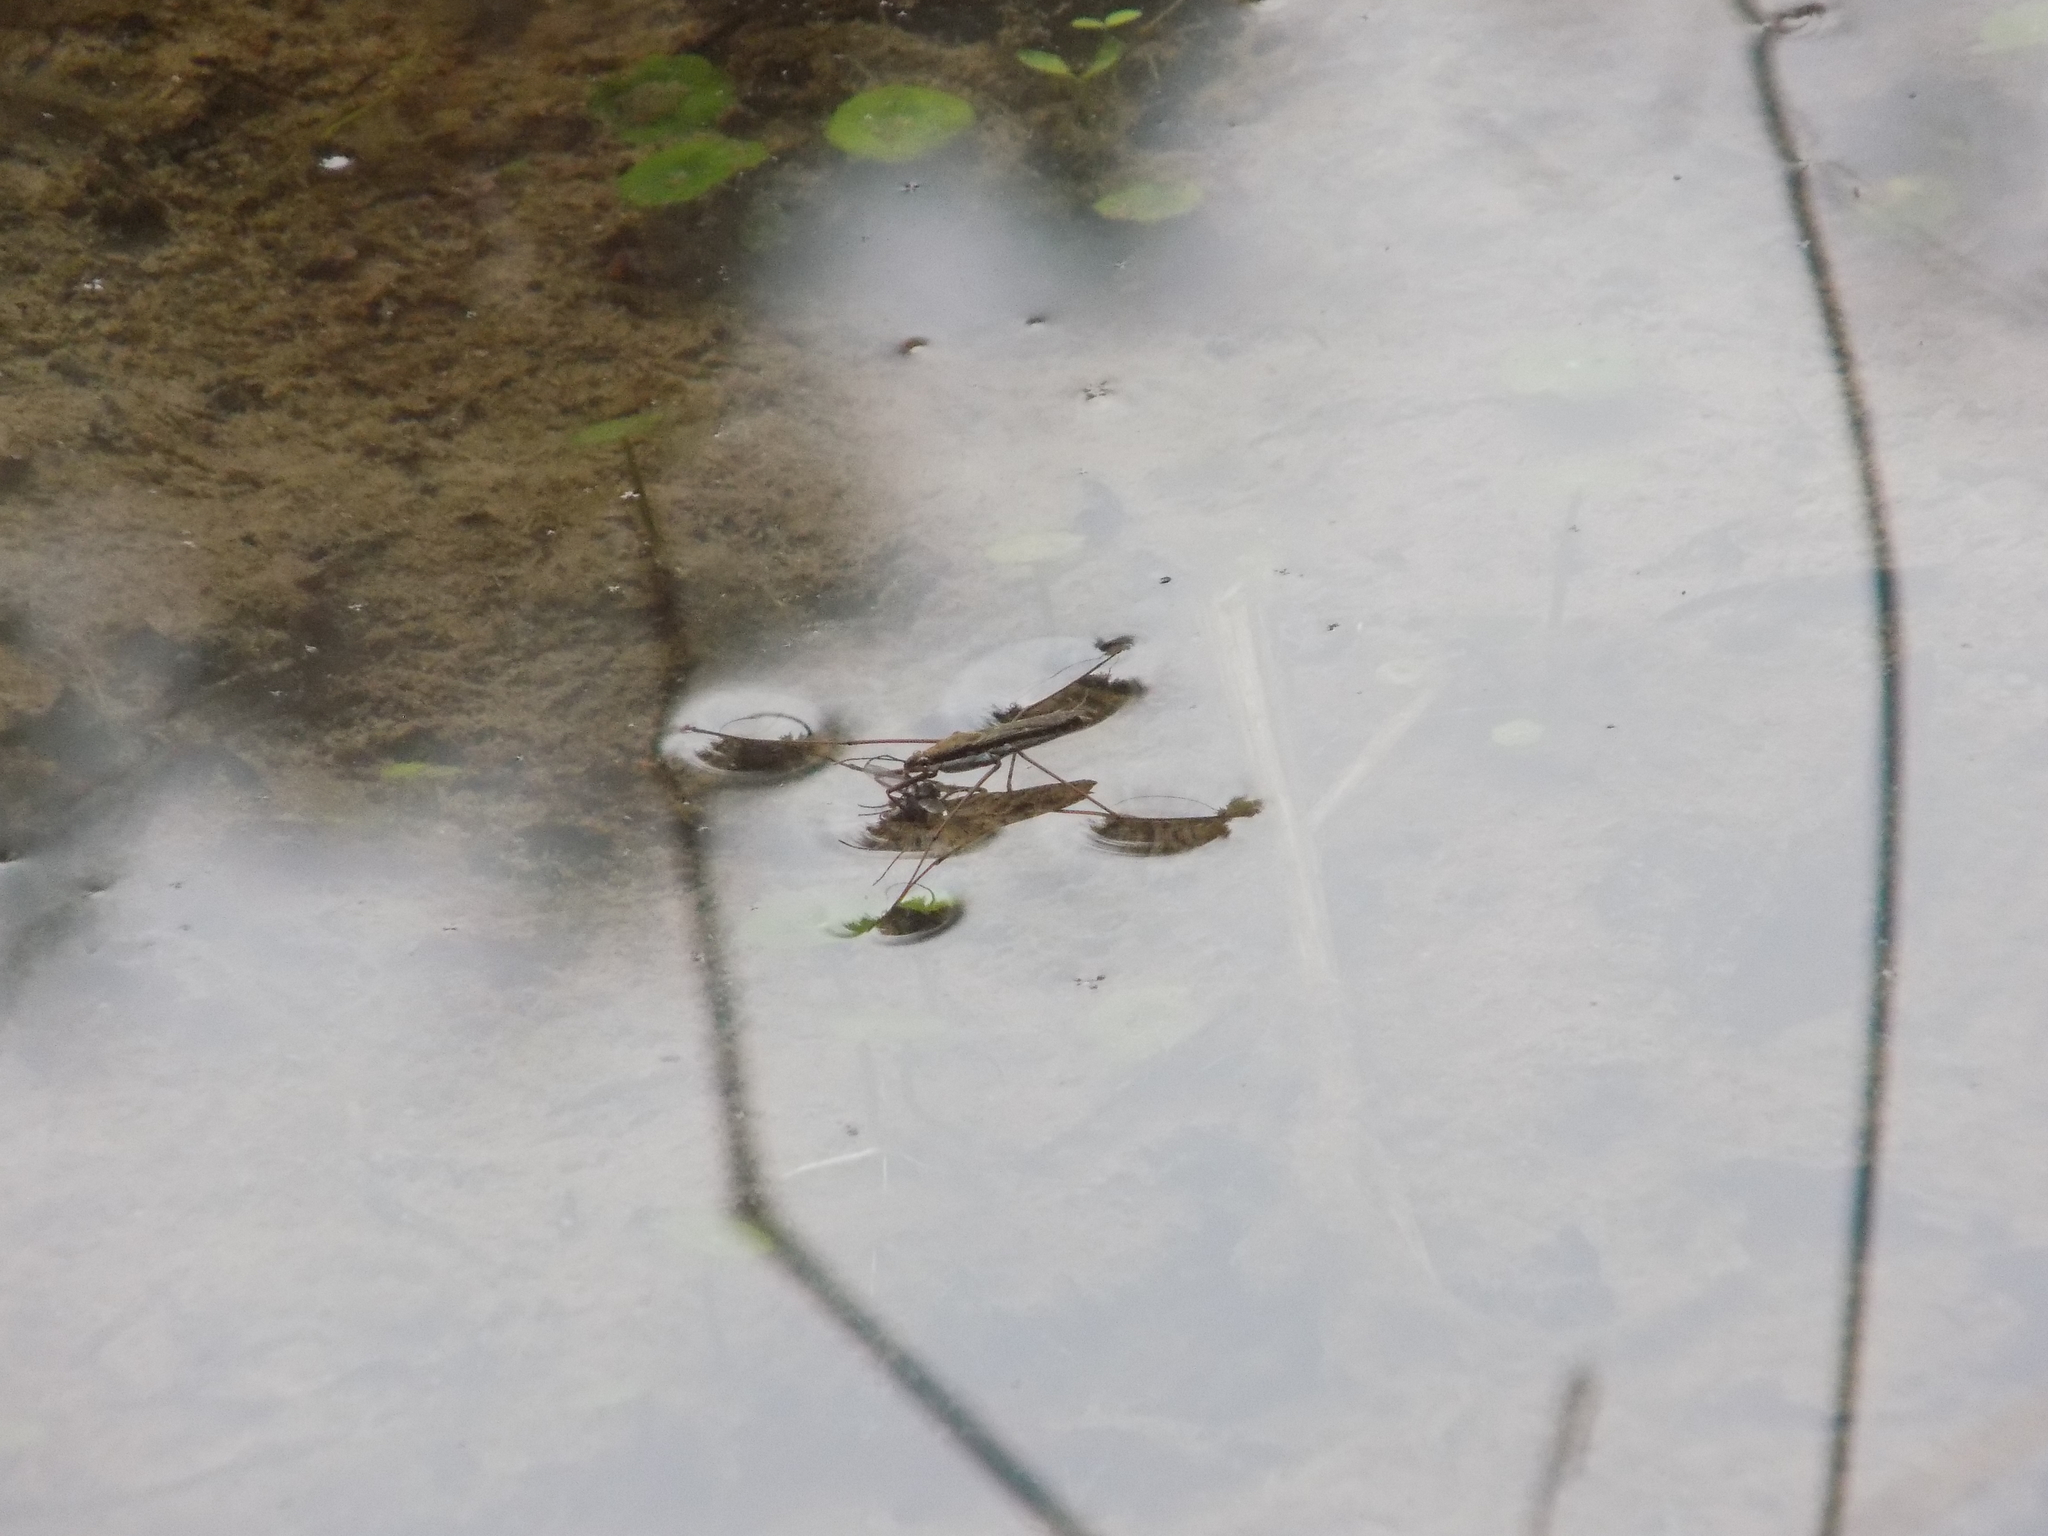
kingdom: Animalia
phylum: Arthropoda
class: Insecta
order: Hemiptera
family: Gerridae
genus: Aquarius
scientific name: Aquarius remigis
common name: Common water strider
